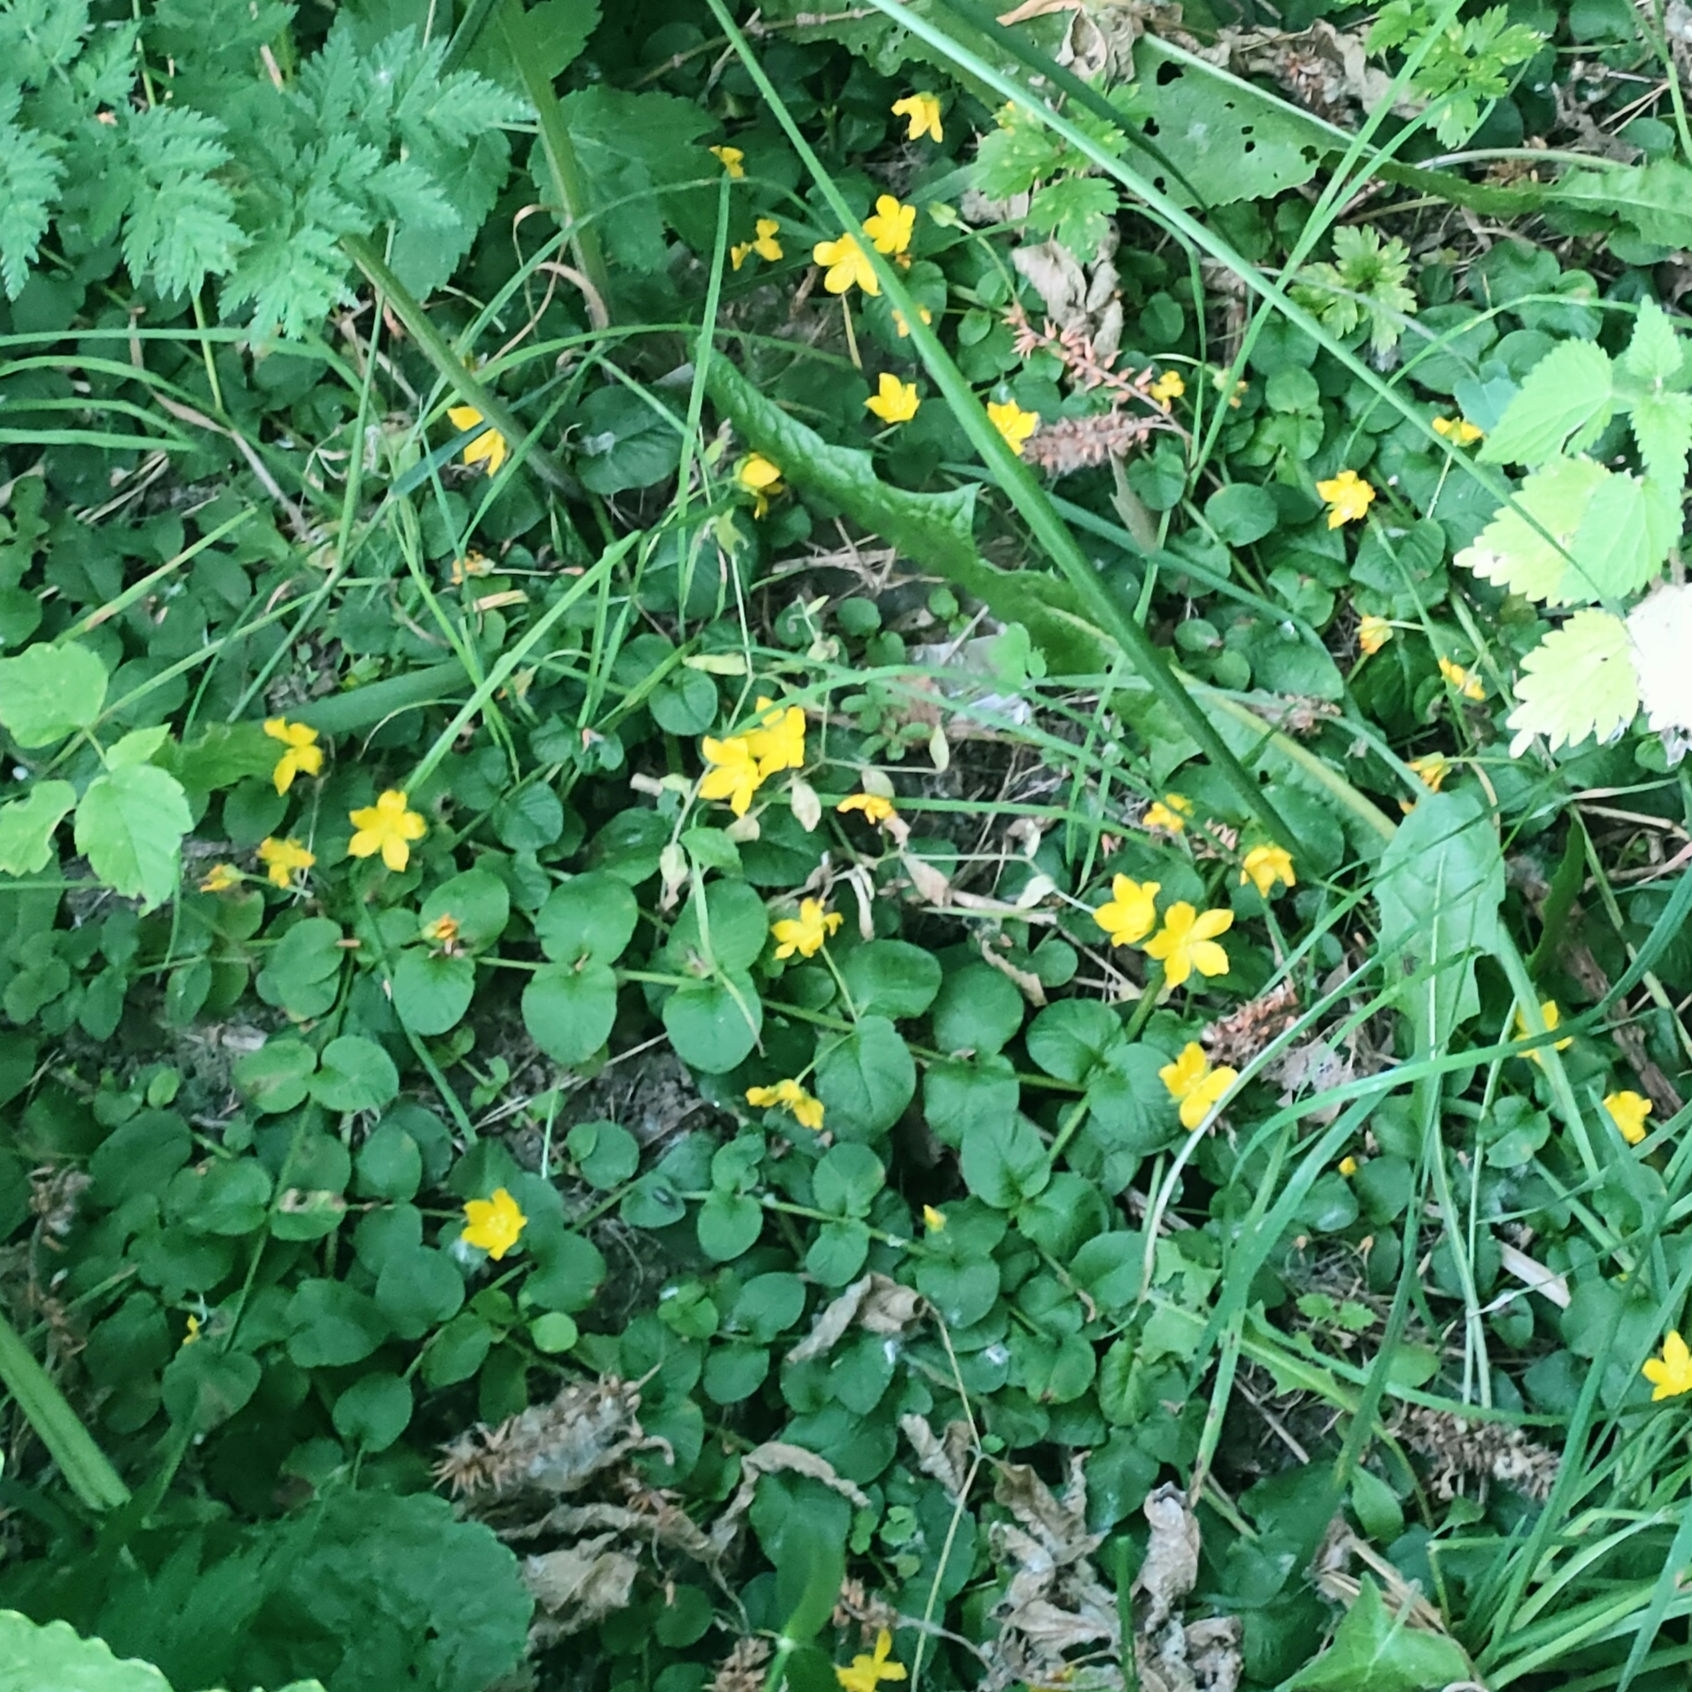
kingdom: Plantae
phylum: Tracheophyta
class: Magnoliopsida
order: Ericales
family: Primulaceae
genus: Lysimachia
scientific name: Lysimachia nummularia
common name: Moneywort
